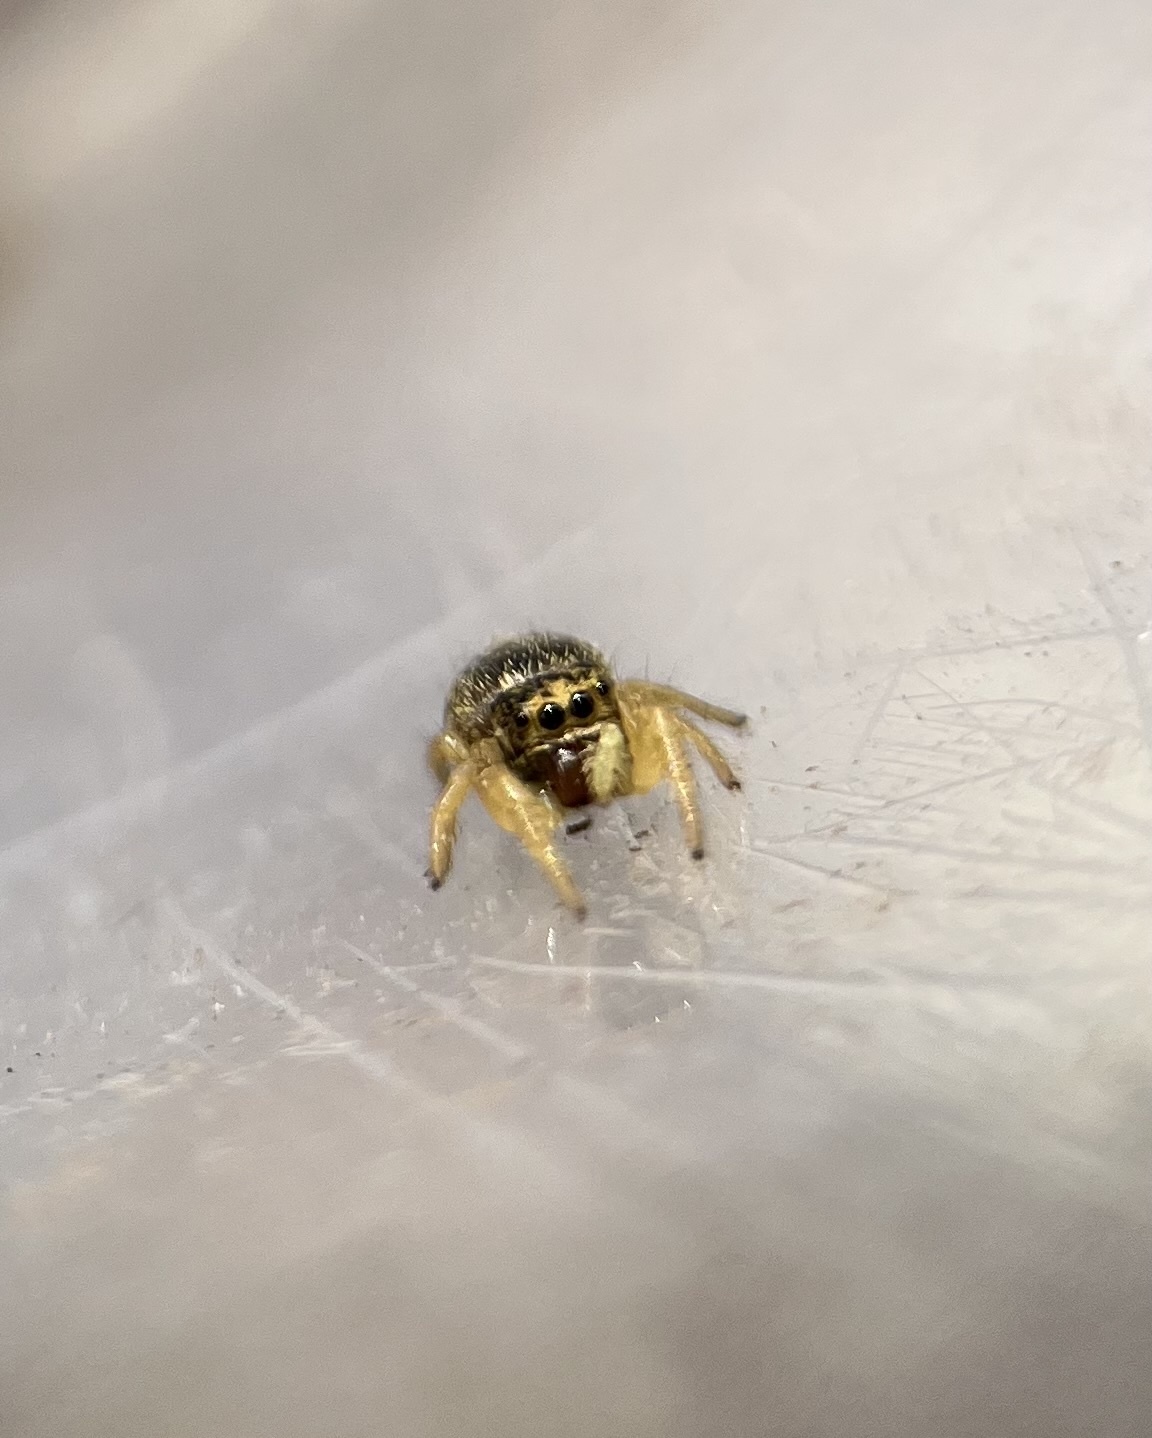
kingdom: Animalia
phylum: Arthropoda
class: Arachnida
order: Araneae
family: Salticidae
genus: Phidippus
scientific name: Phidippus nikites
